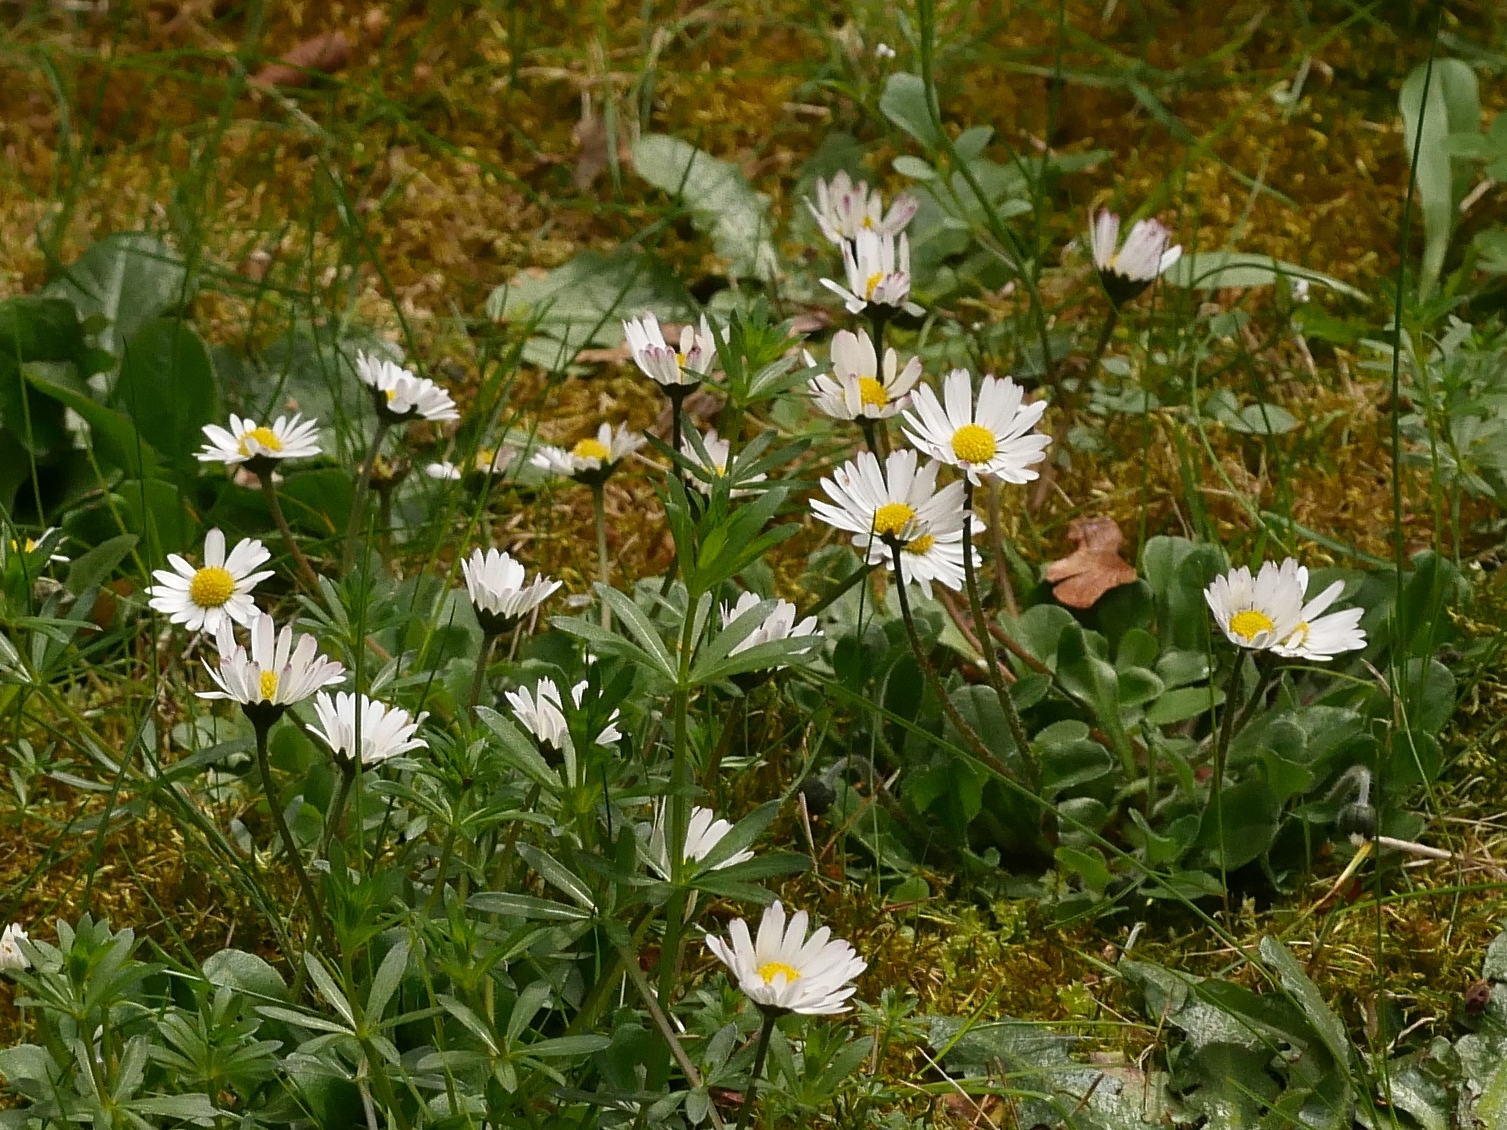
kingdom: Plantae
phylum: Tracheophyta
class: Magnoliopsida
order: Asterales
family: Asteraceae
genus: Bellis
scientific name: Bellis perennis
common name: Lawndaisy
